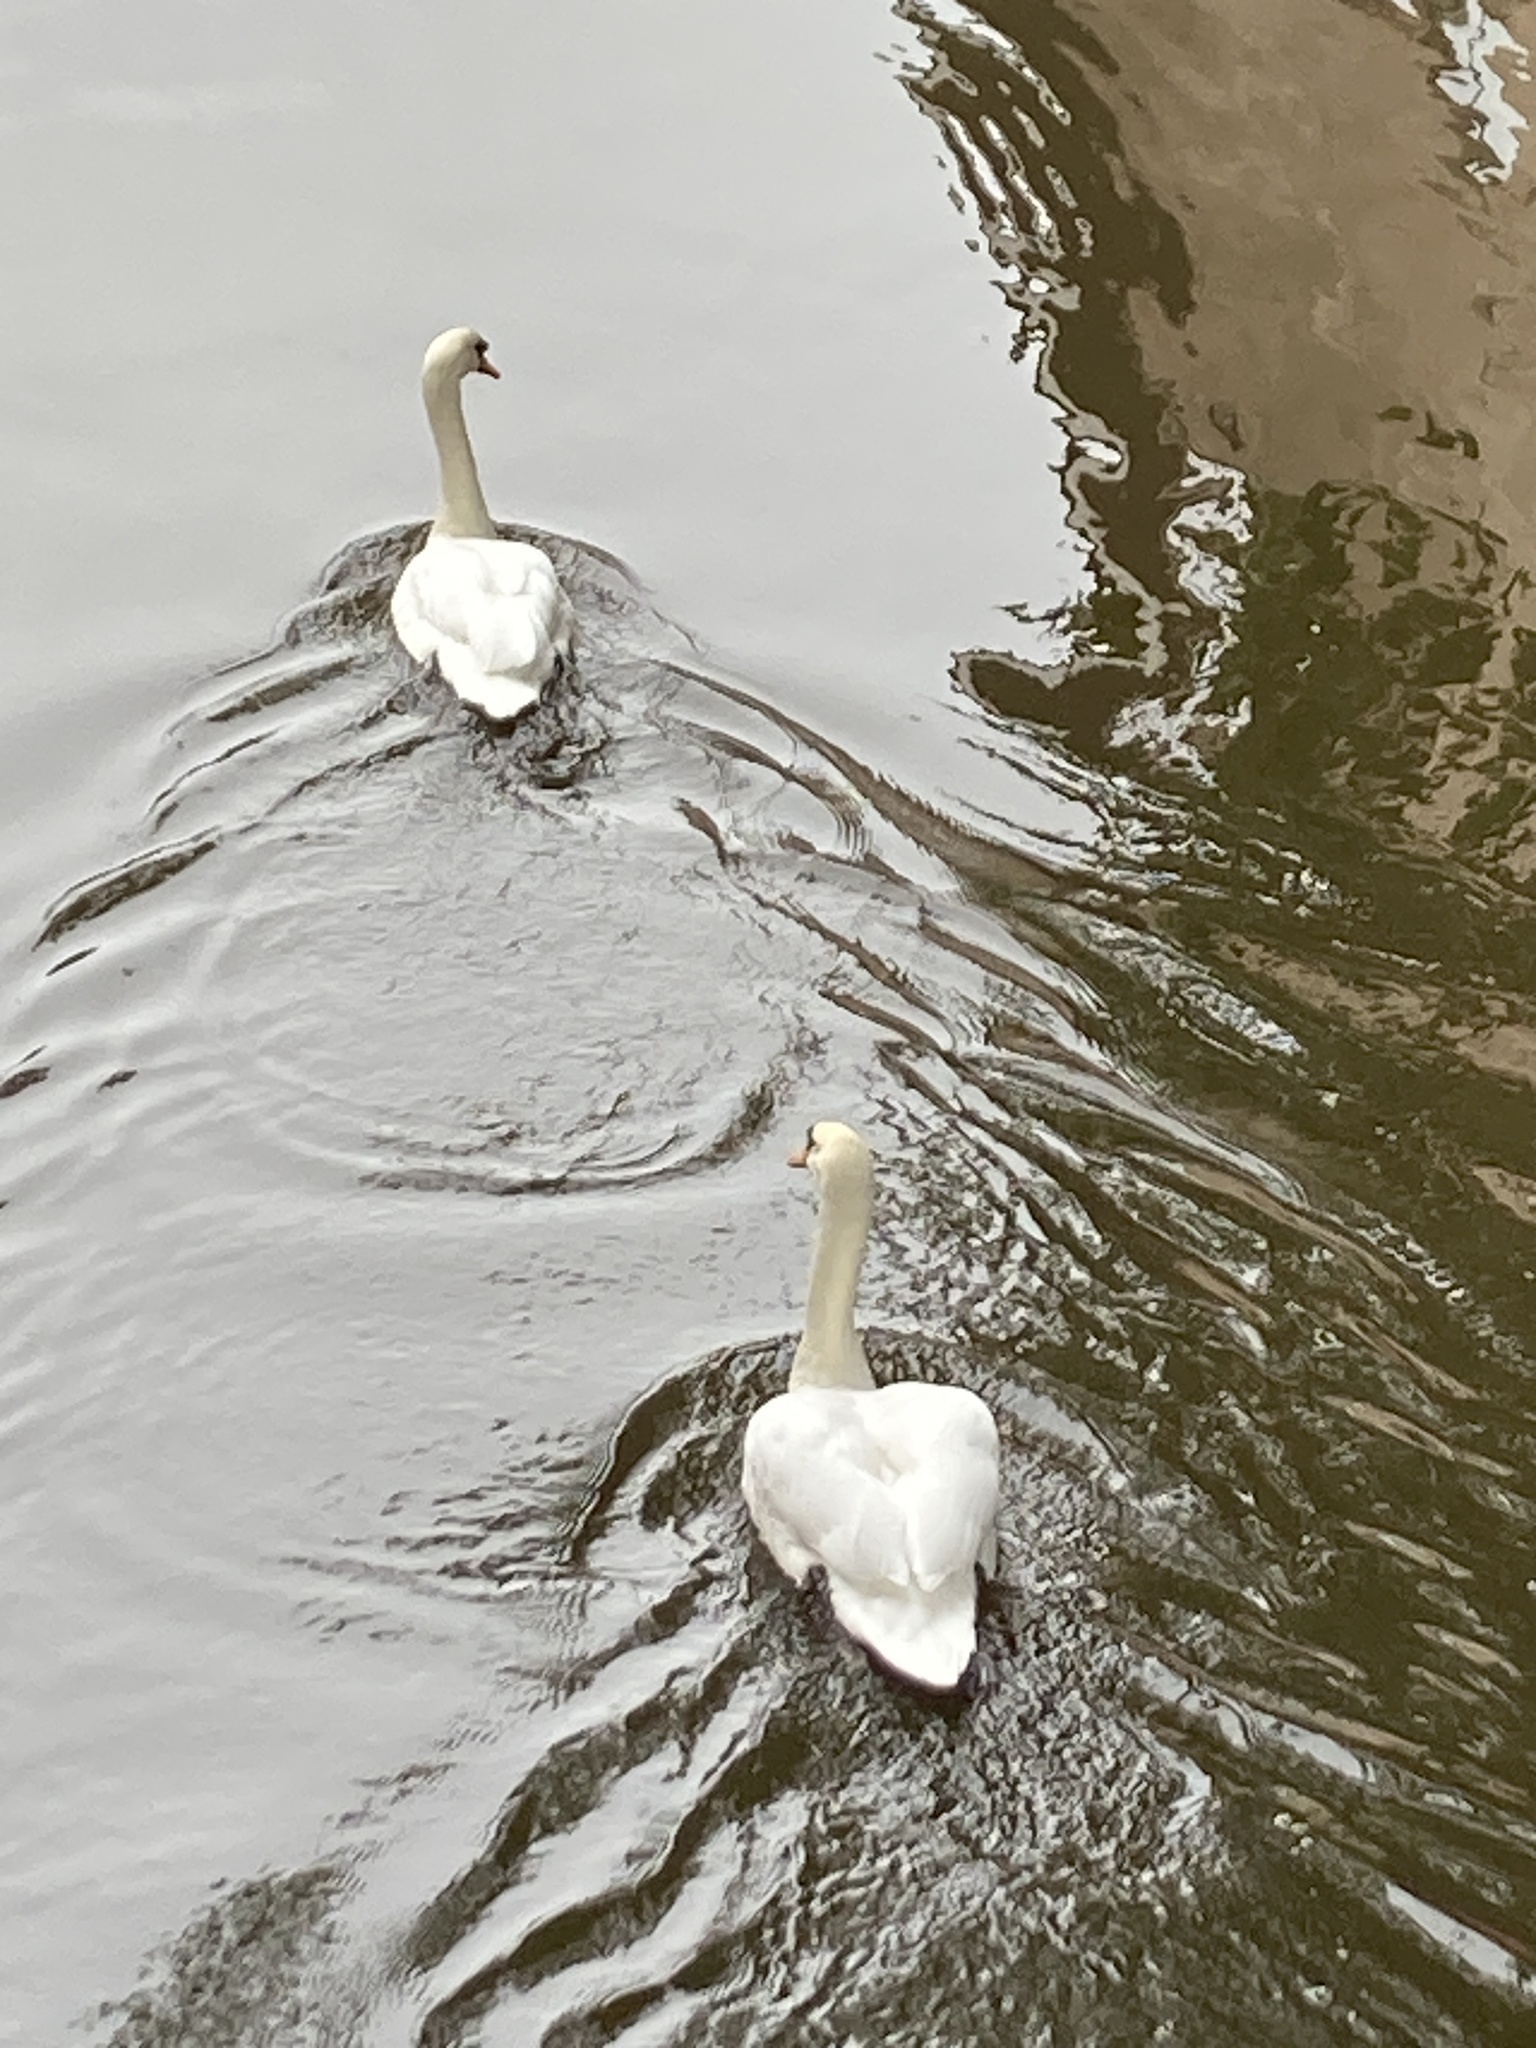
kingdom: Animalia
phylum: Chordata
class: Aves
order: Anseriformes
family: Anatidae
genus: Cygnus
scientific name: Cygnus olor
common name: Mute swan
